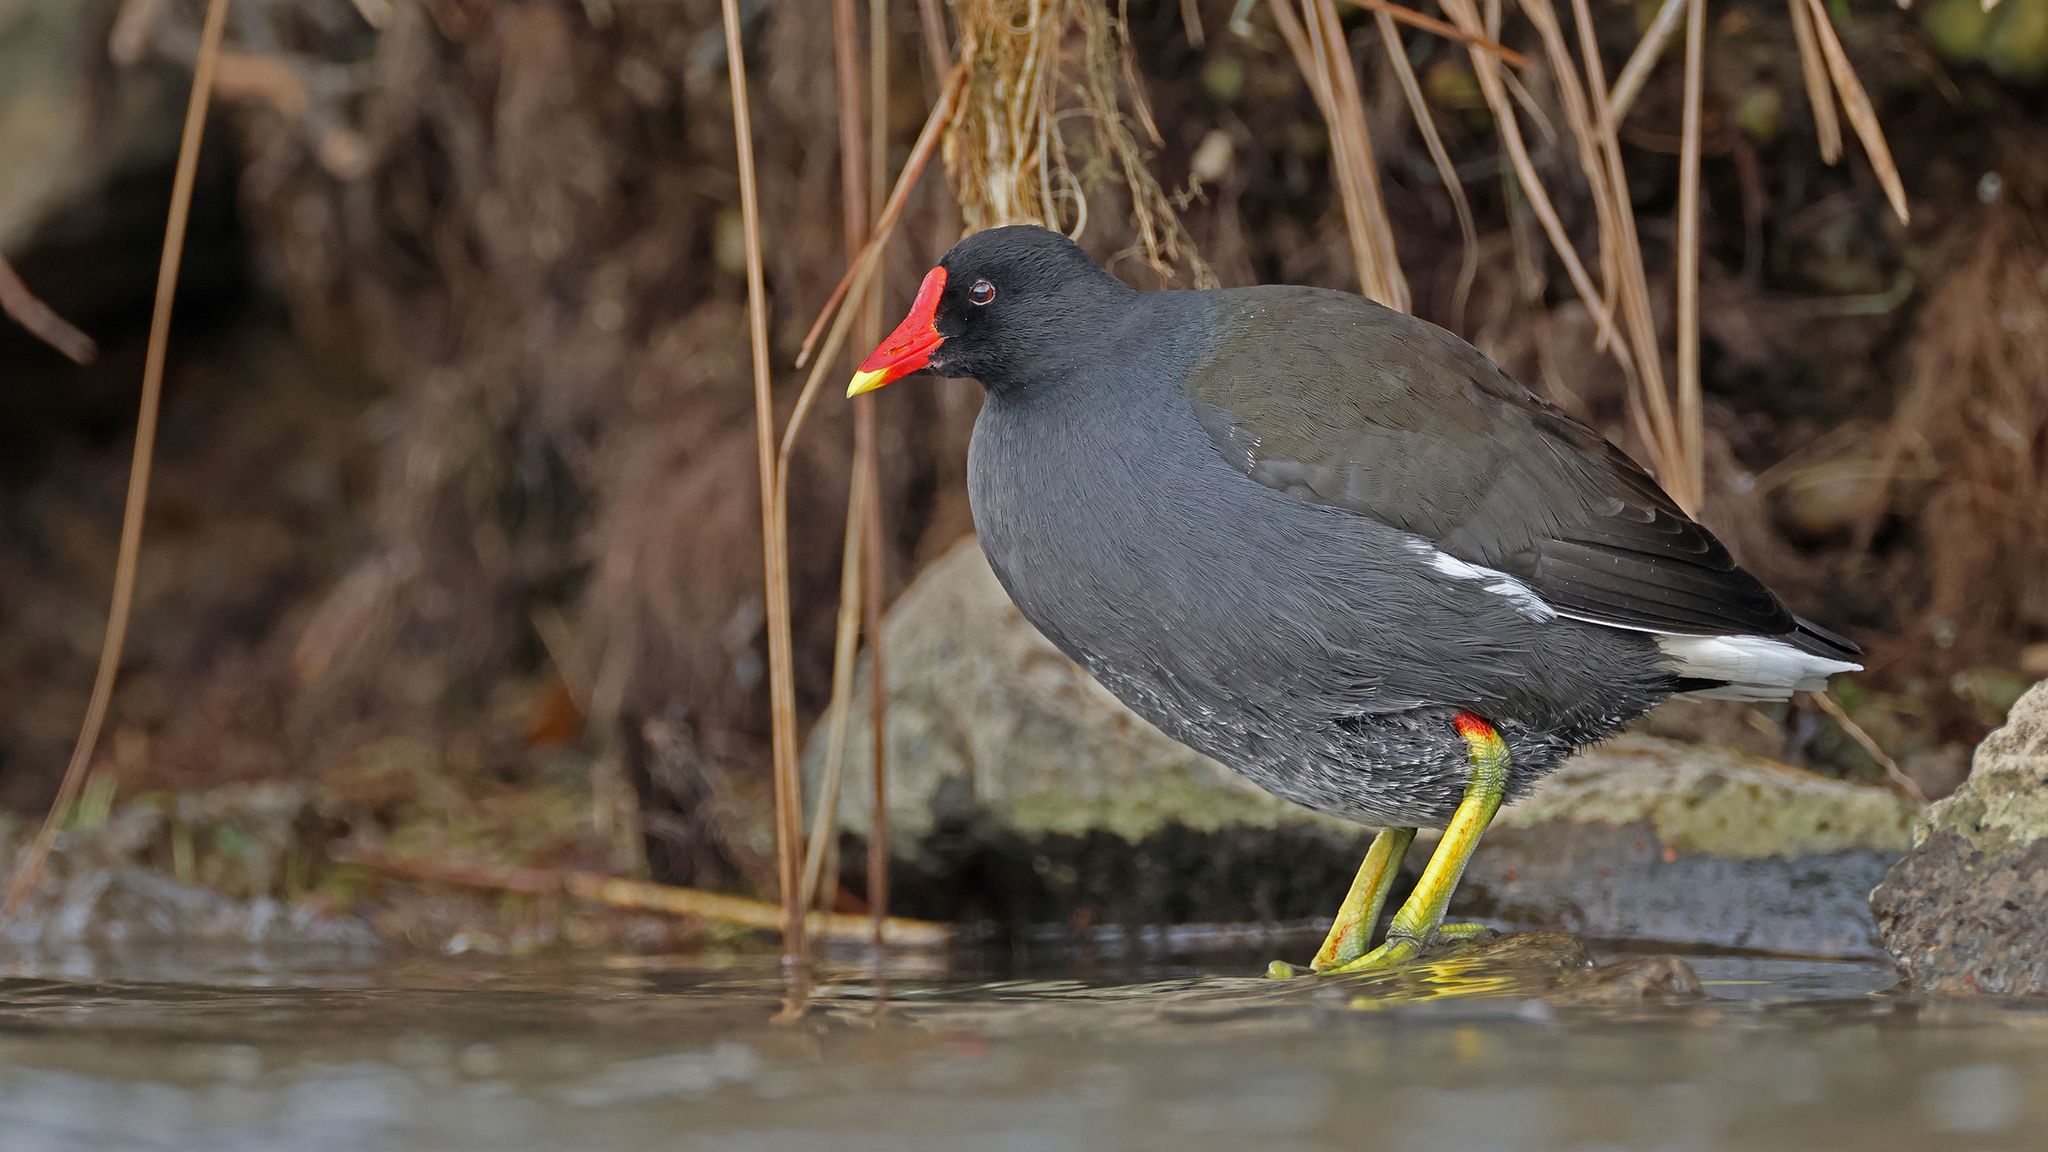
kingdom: Animalia
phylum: Chordata
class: Aves
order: Gruiformes
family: Rallidae
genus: Gallinula
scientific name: Gallinula chloropus
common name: Common moorhen
